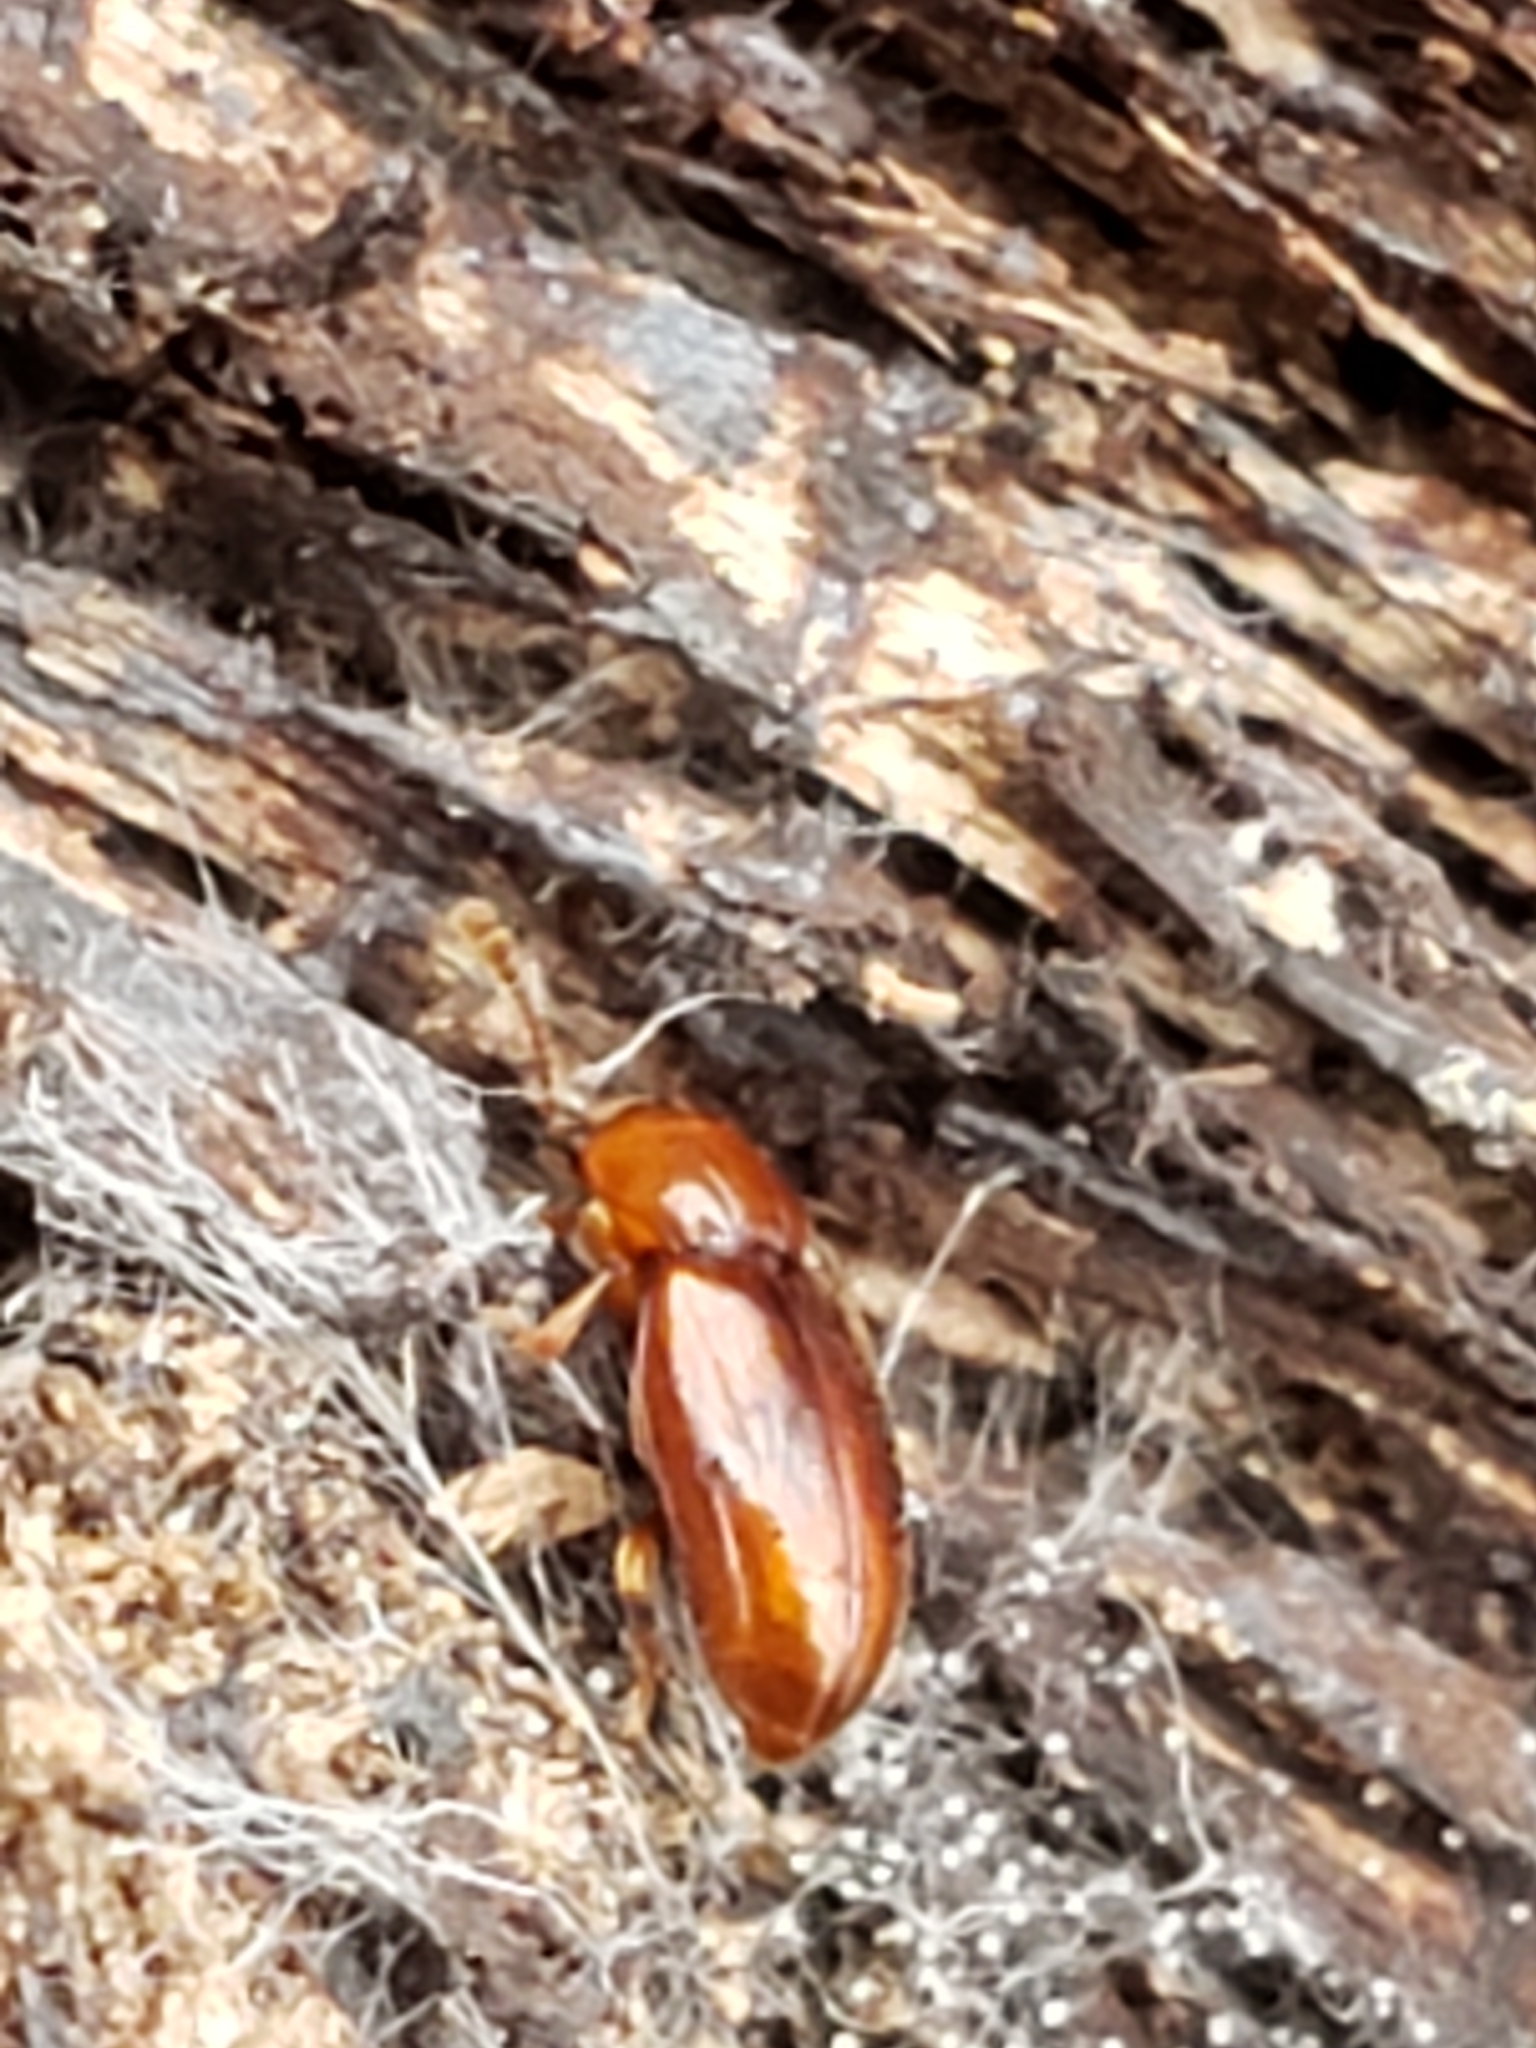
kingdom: Animalia
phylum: Arthropoda
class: Insecta
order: Coleoptera
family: Endomychidae
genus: Rhanidea
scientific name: Rhanidea unicolor
